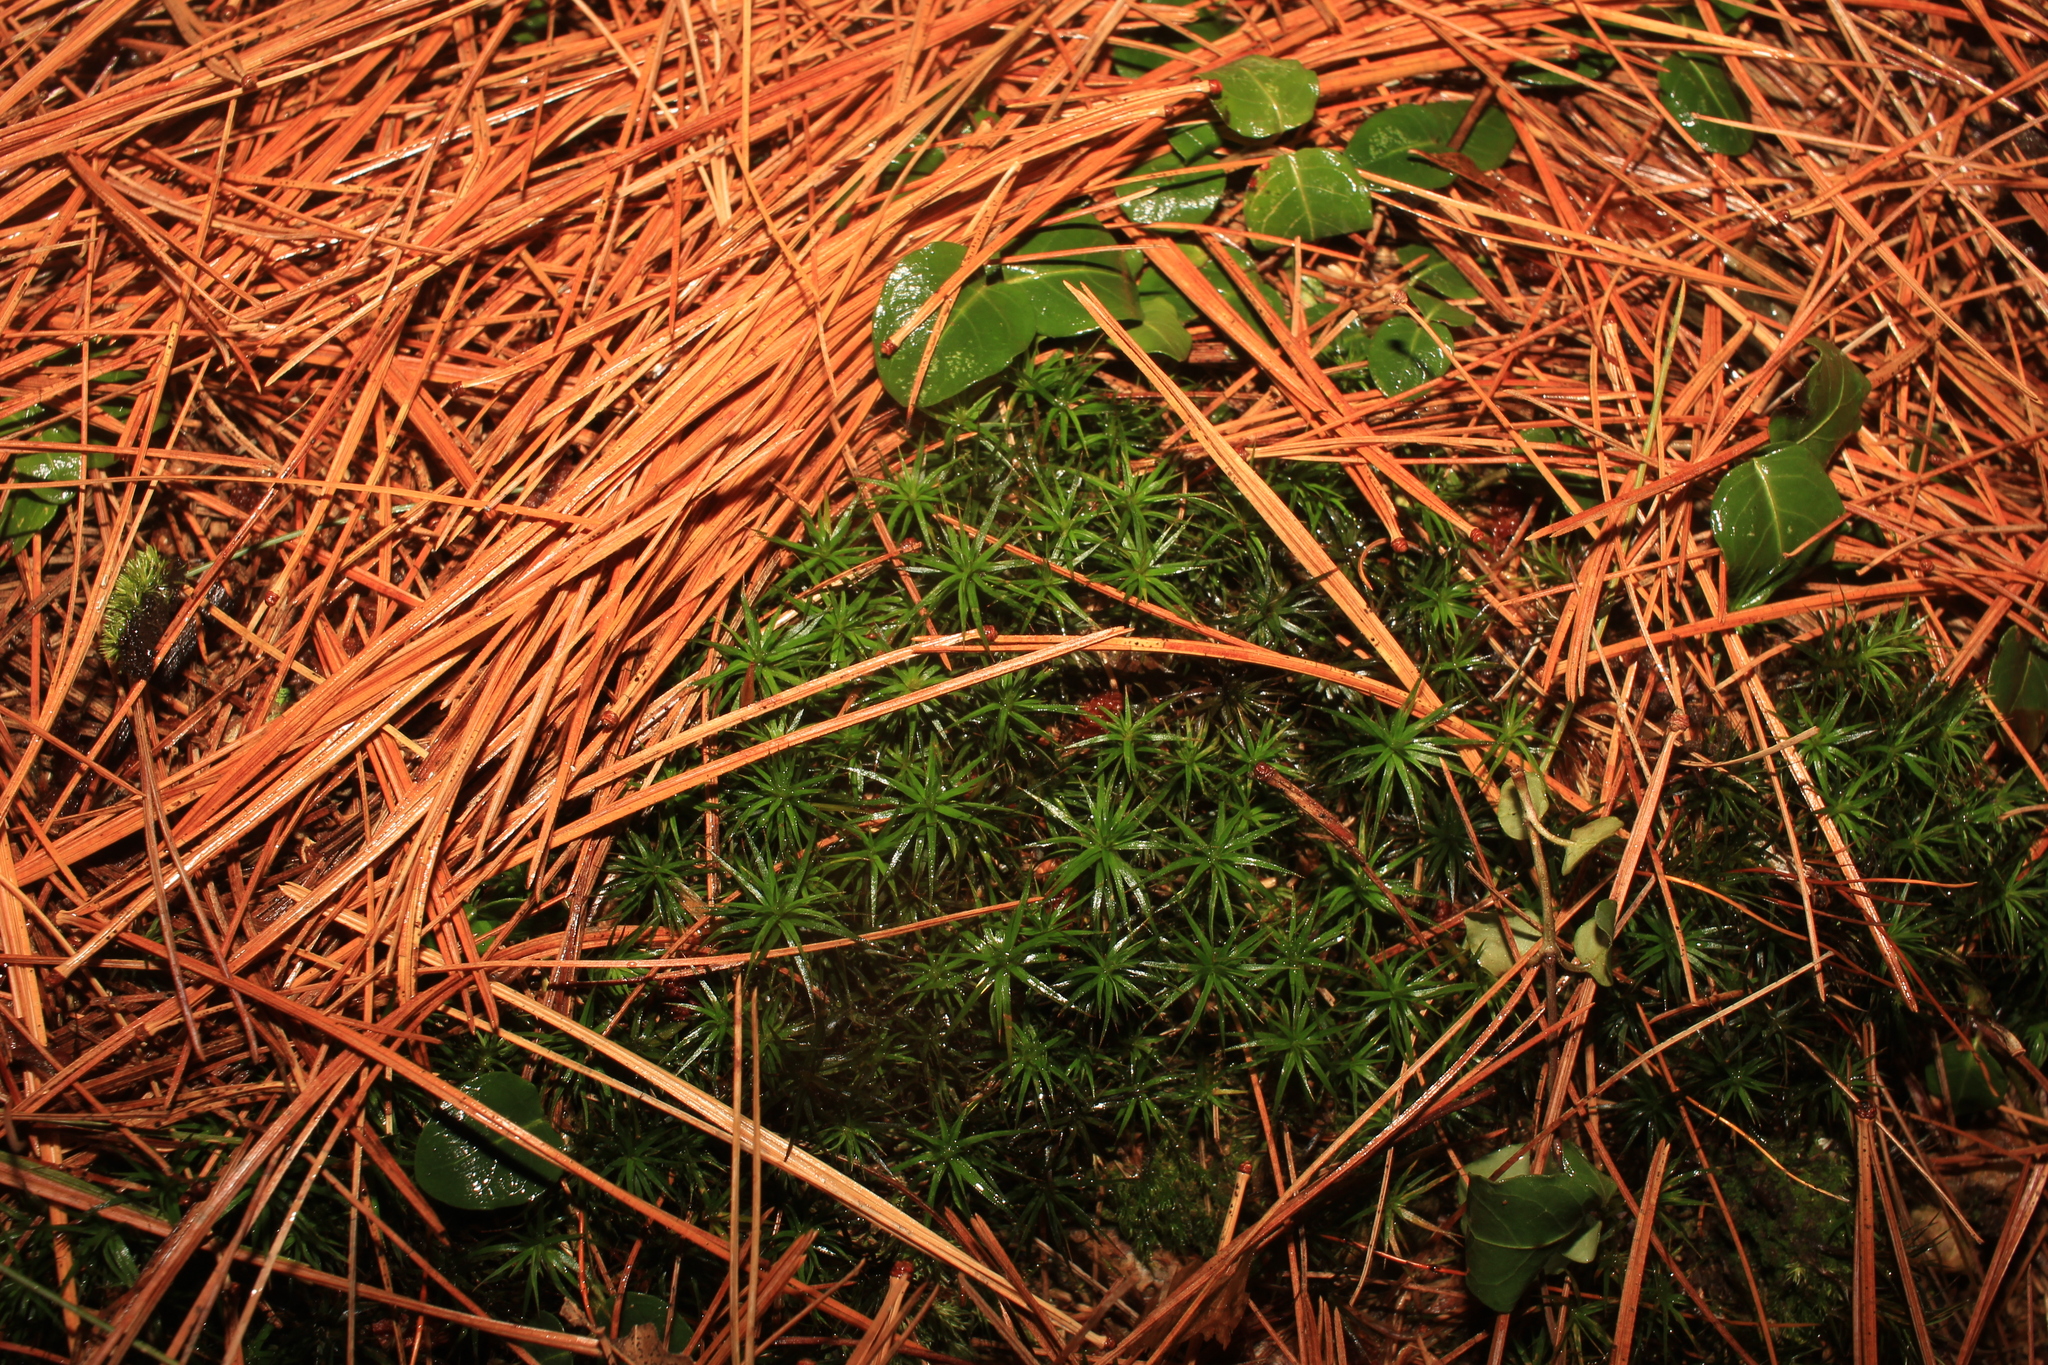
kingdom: Plantae
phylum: Tracheophyta
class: Magnoliopsida
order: Gentianales
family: Rubiaceae
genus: Mitchella
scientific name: Mitchella repens
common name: Partridge-berry
